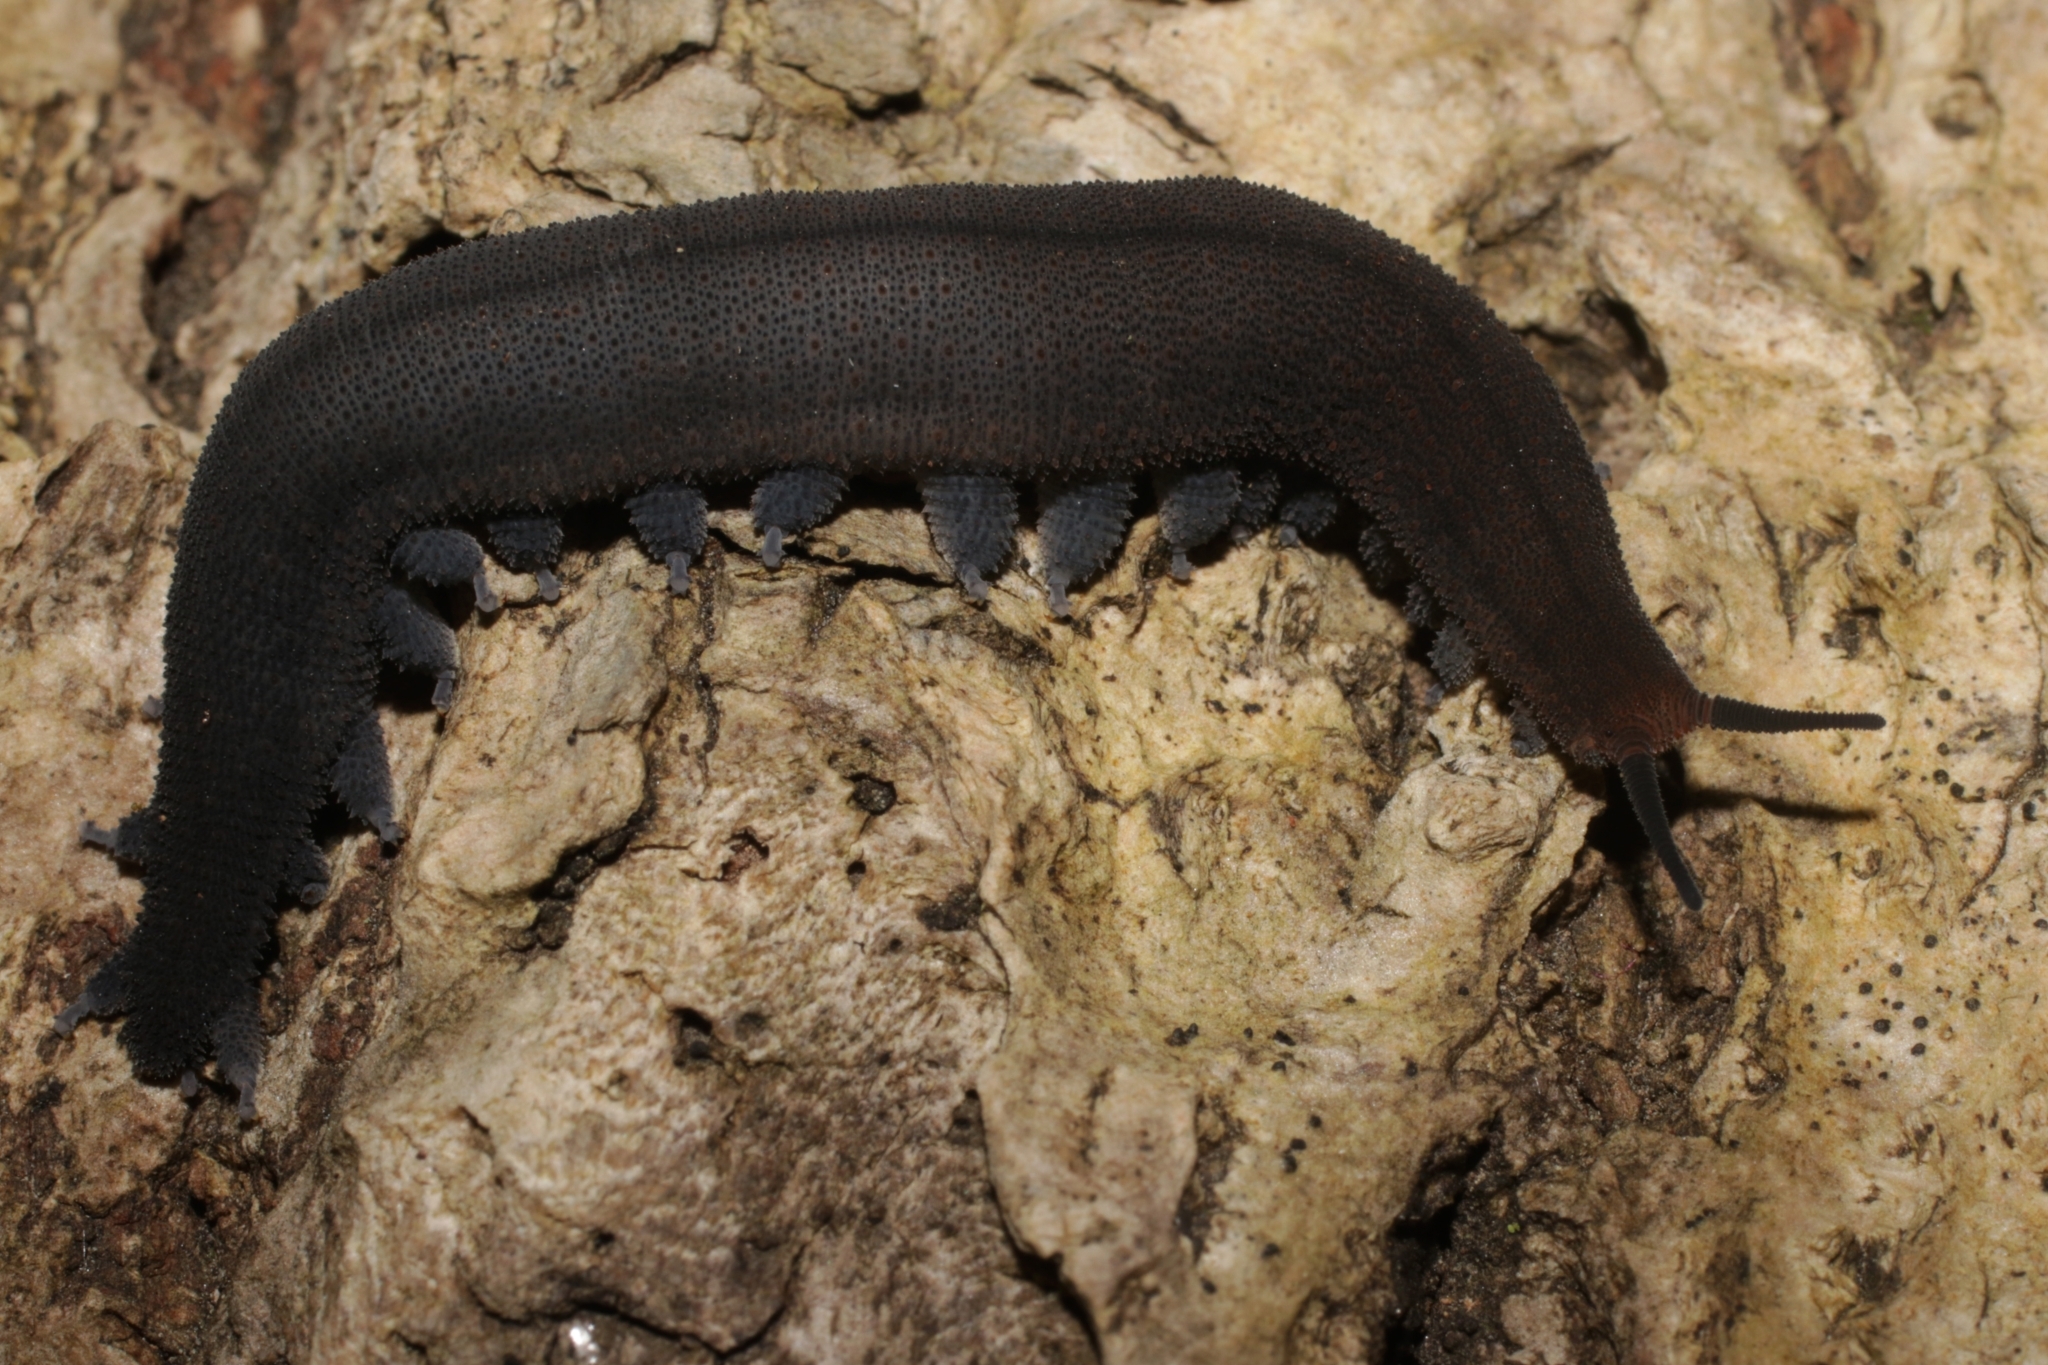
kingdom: Animalia
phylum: Onychophora
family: Peripatopsidae
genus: Peripatopsis
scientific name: Peripatopsis lawrencei
